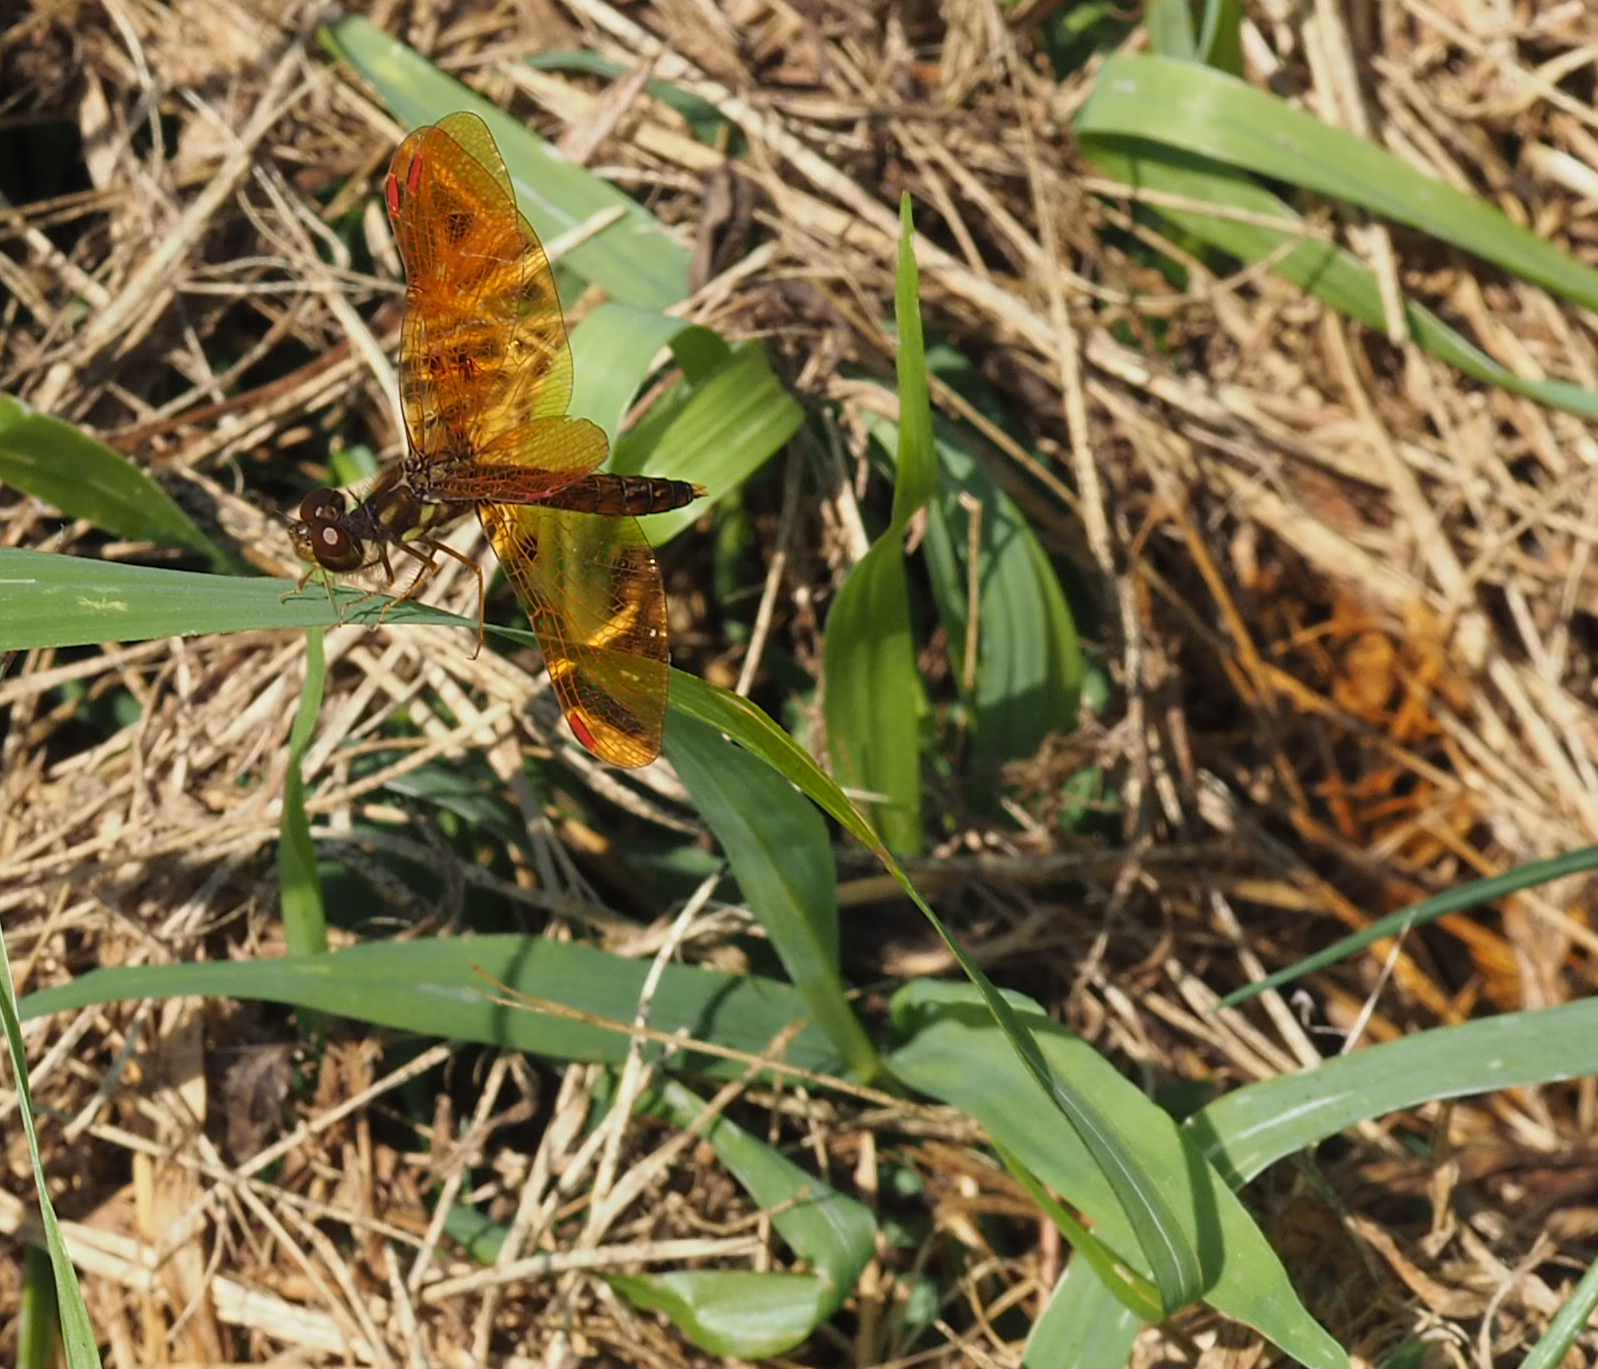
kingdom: Animalia
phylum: Arthropoda
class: Insecta
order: Odonata
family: Libellulidae
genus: Perithemis
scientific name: Perithemis tenera
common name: Eastern amberwing
